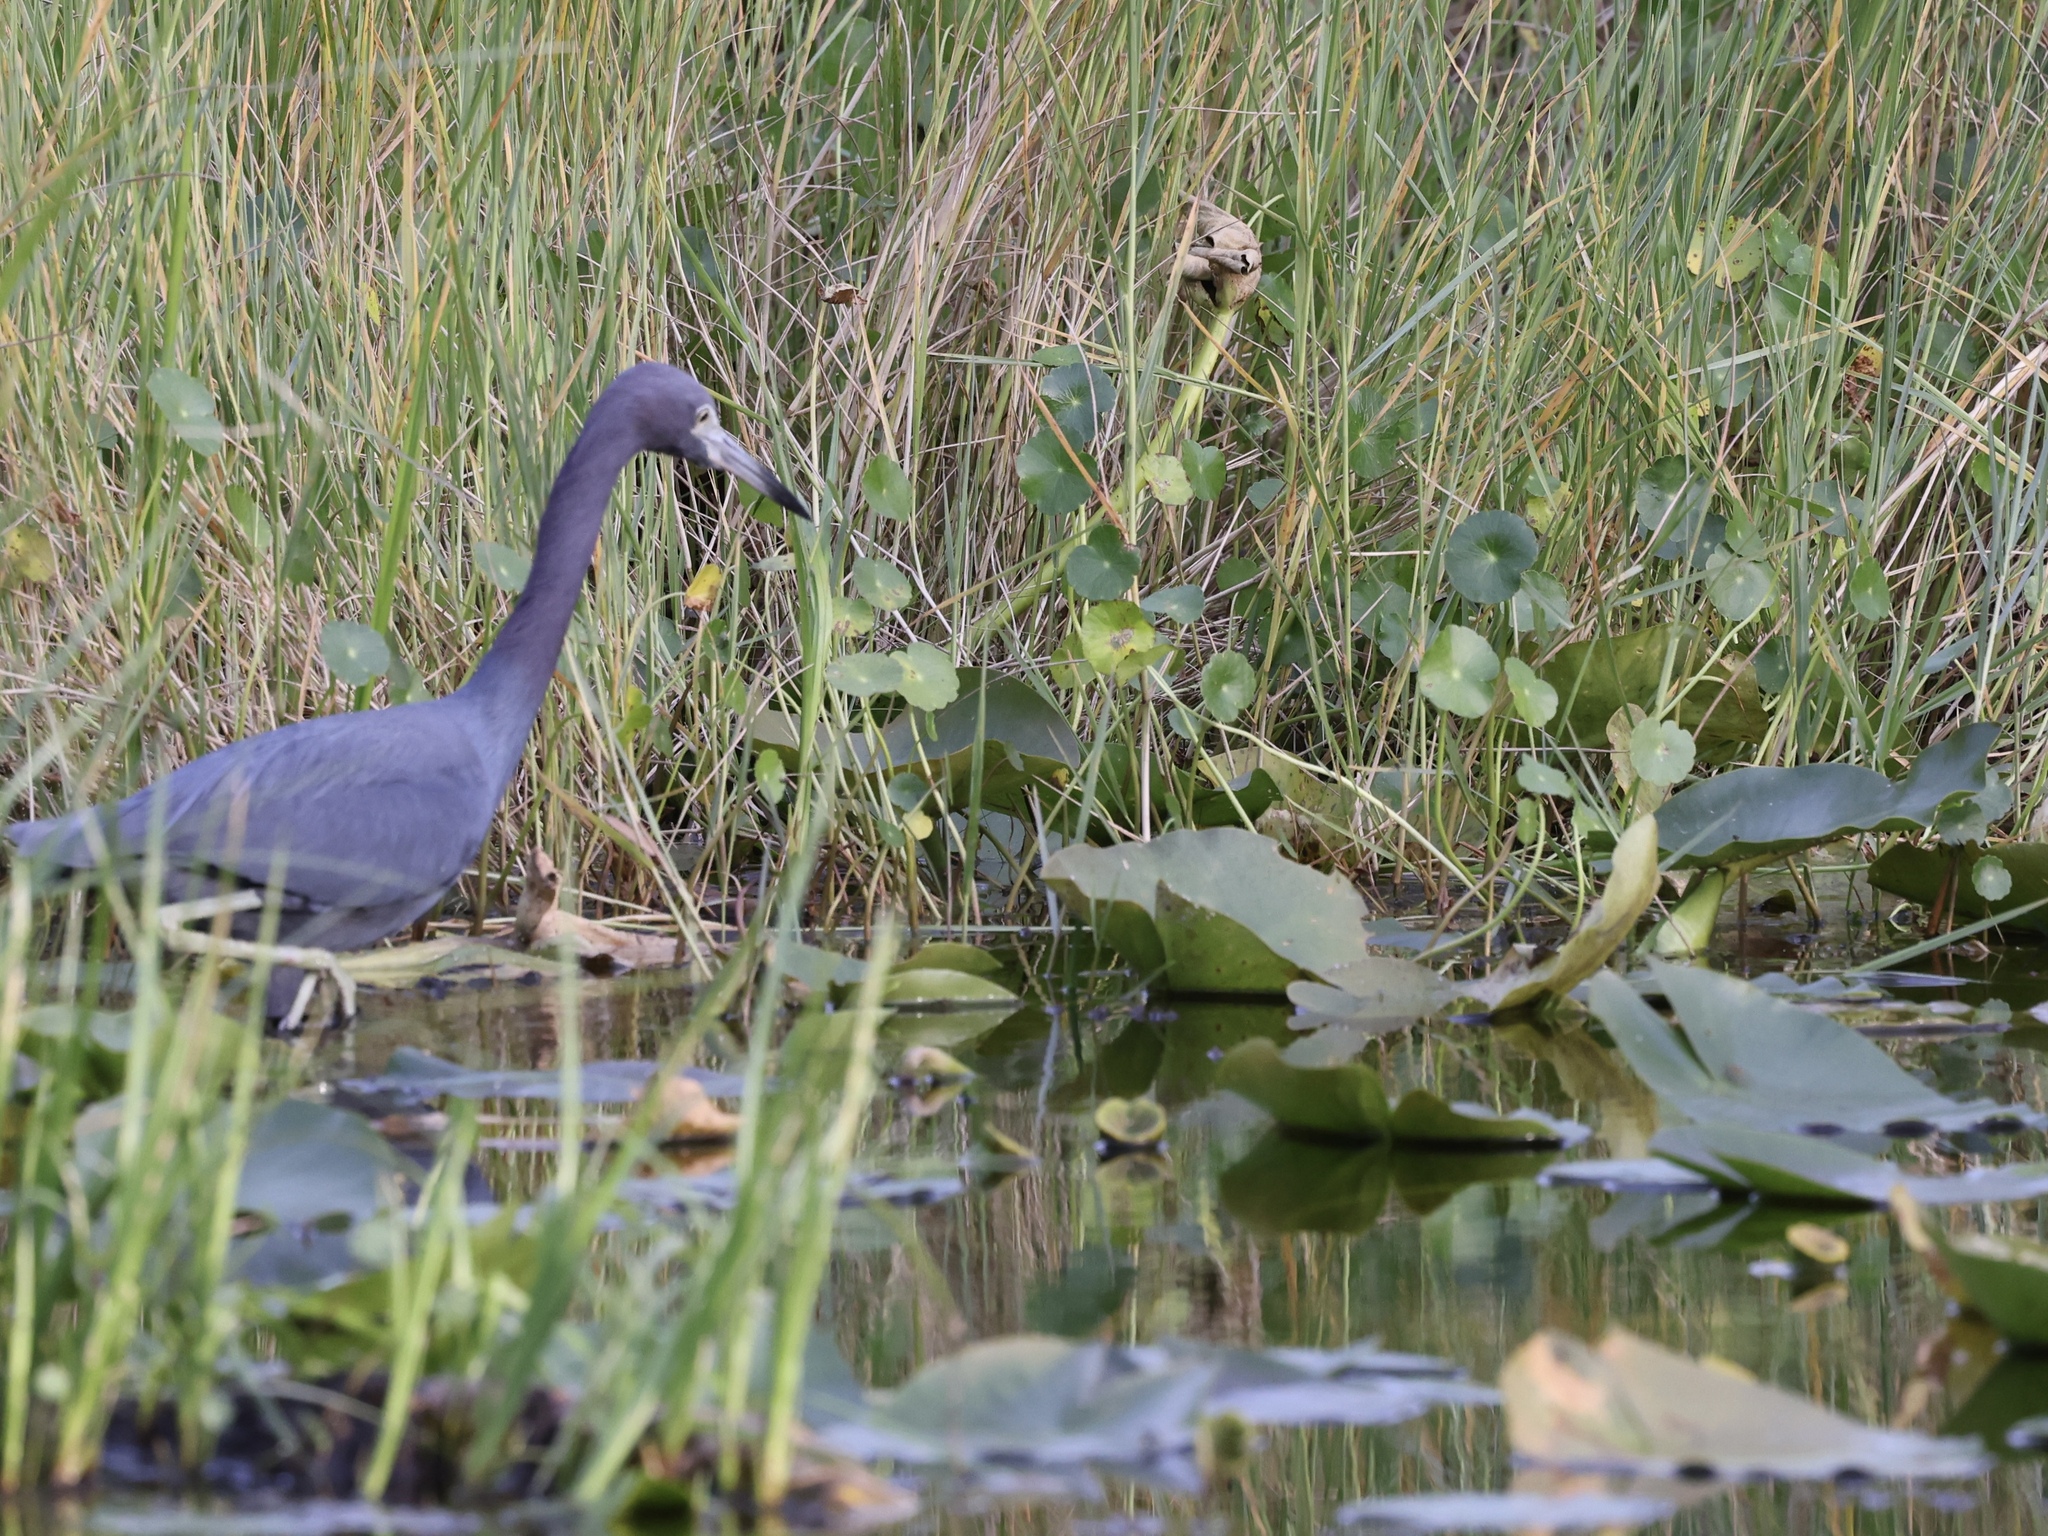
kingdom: Animalia
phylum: Chordata
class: Aves
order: Pelecaniformes
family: Ardeidae
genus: Egretta
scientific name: Egretta caerulea
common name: Little blue heron
